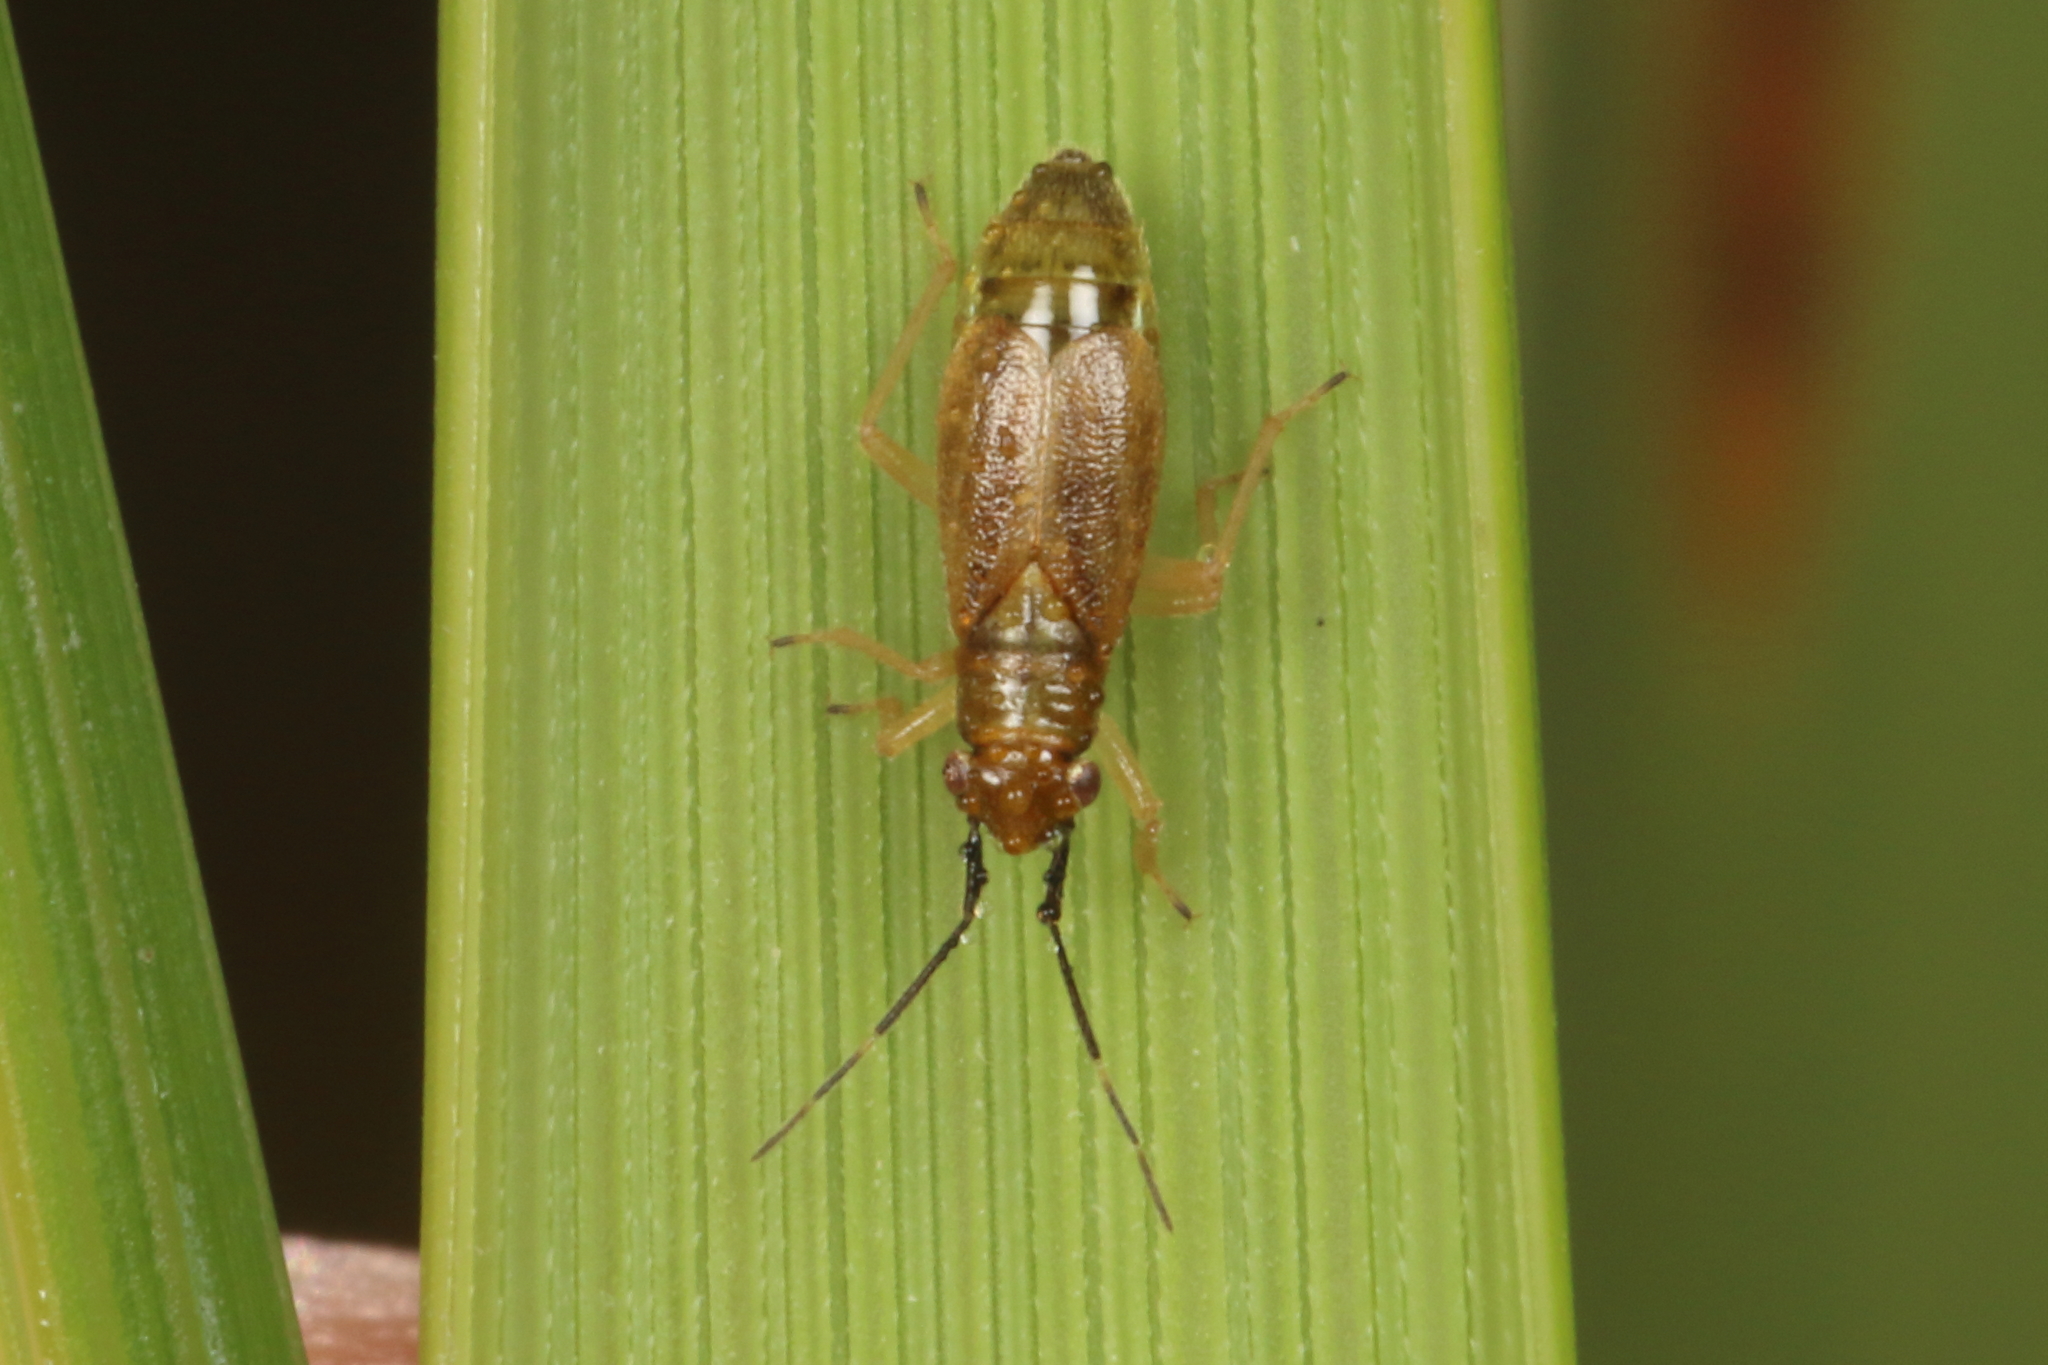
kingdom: Animalia
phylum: Arthropoda
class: Insecta
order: Hemiptera
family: Miridae
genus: Kiwimiris
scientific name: Kiwimiris melanocerus
